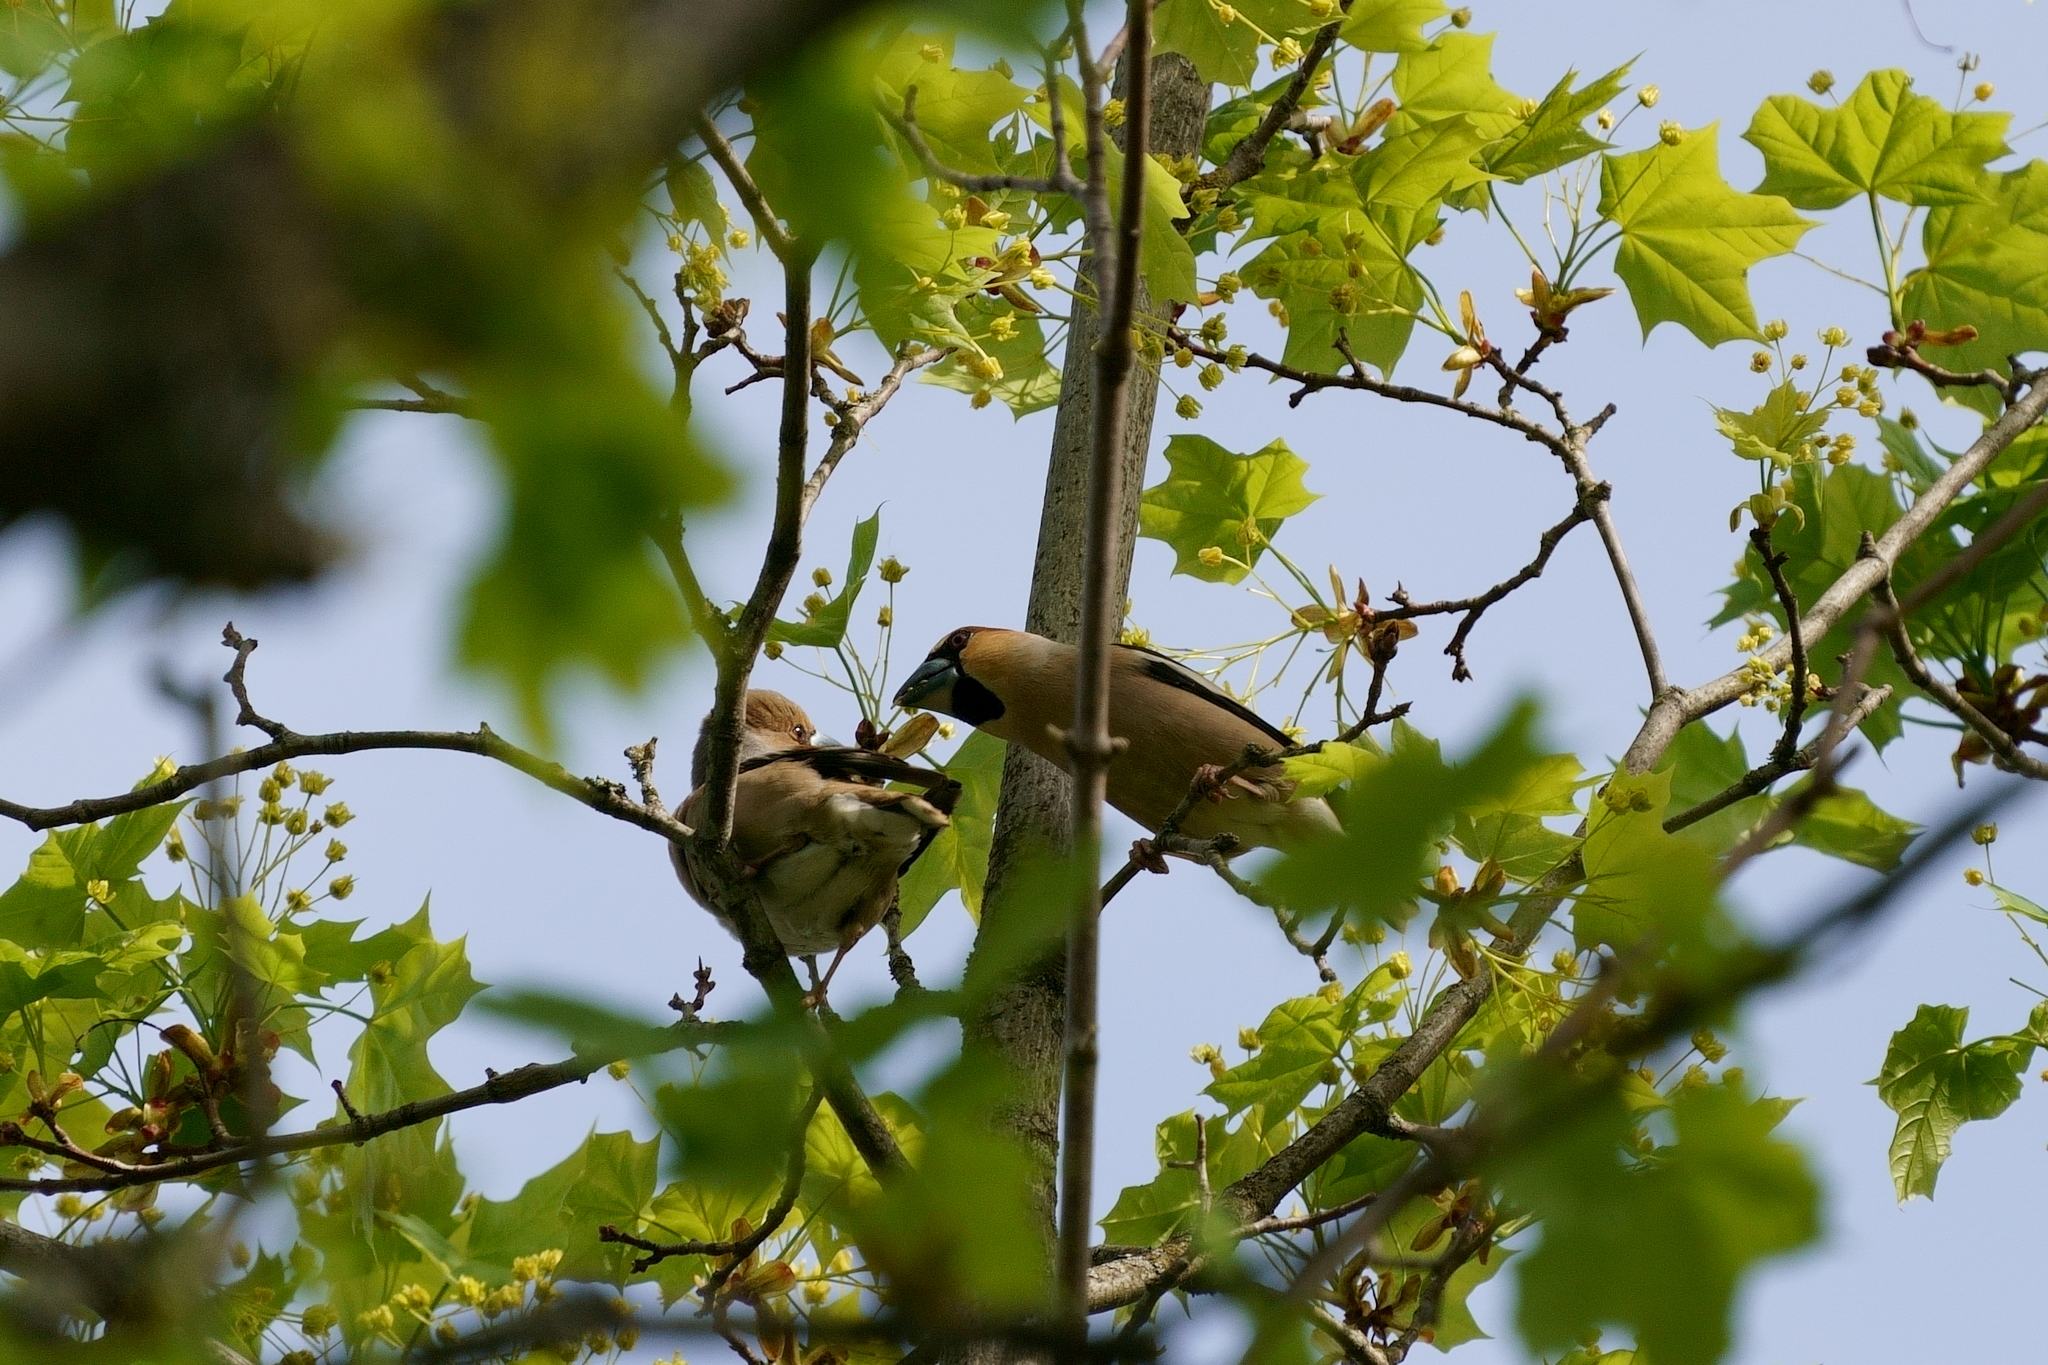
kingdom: Animalia
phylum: Chordata
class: Aves
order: Passeriformes
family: Fringillidae
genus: Coccothraustes
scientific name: Coccothraustes coccothraustes
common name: Hawfinch
